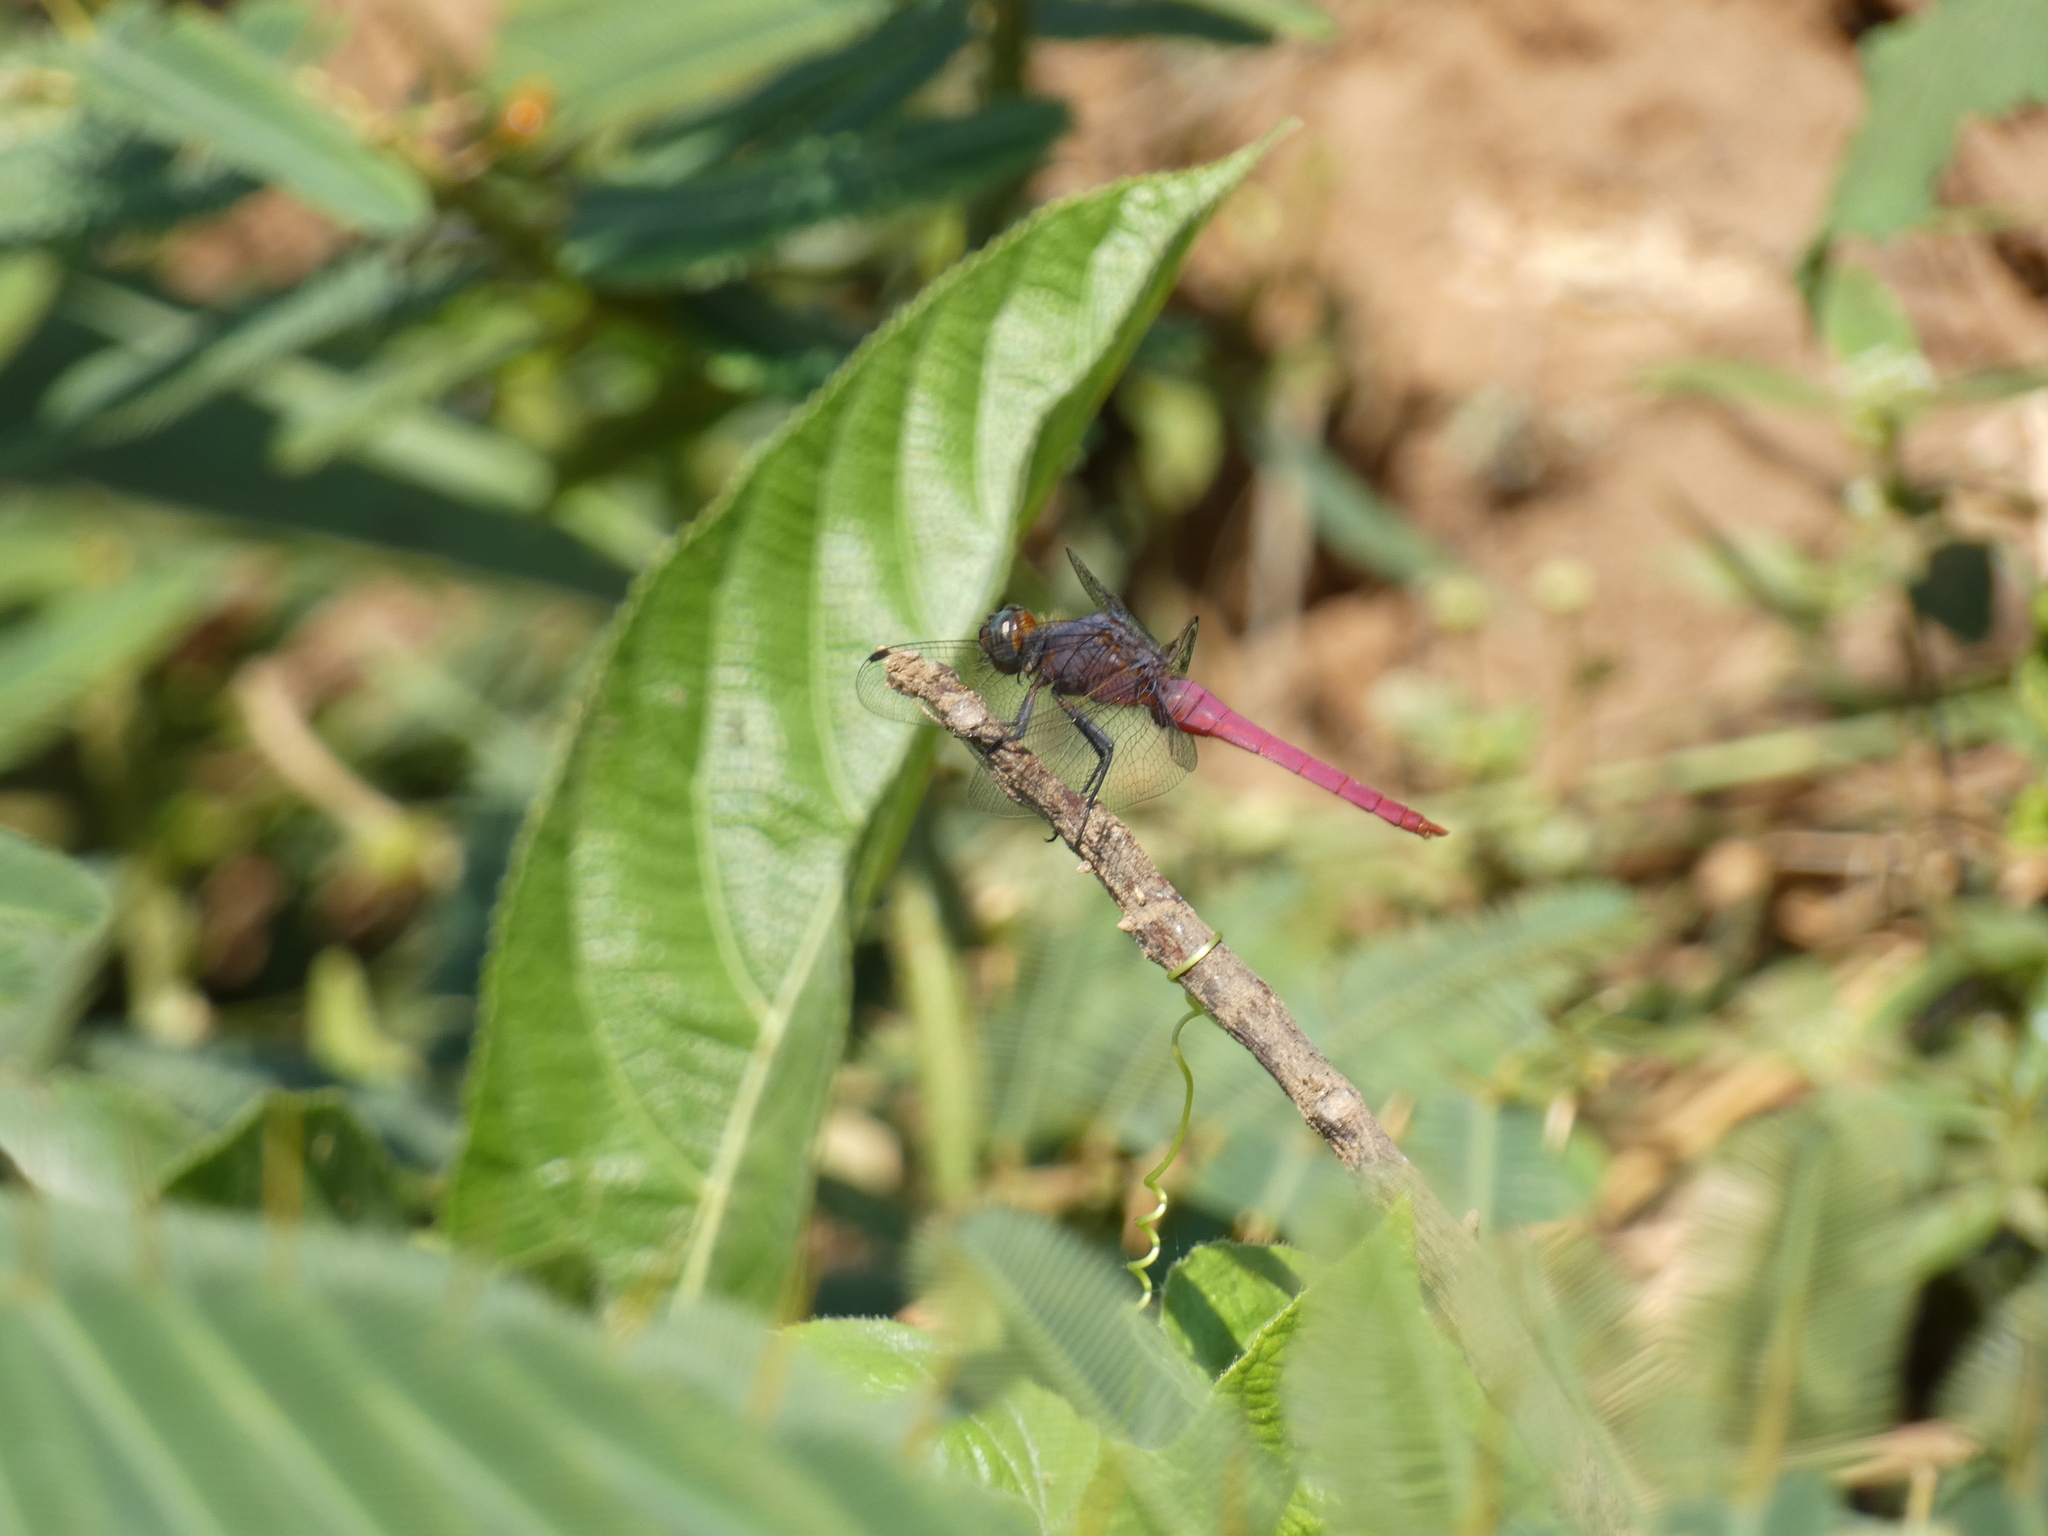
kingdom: Animalia
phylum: Arthropoda
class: Insecta
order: Odonata
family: Libellulidae
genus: Orthetrum
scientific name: Orthetrum pruinosum
